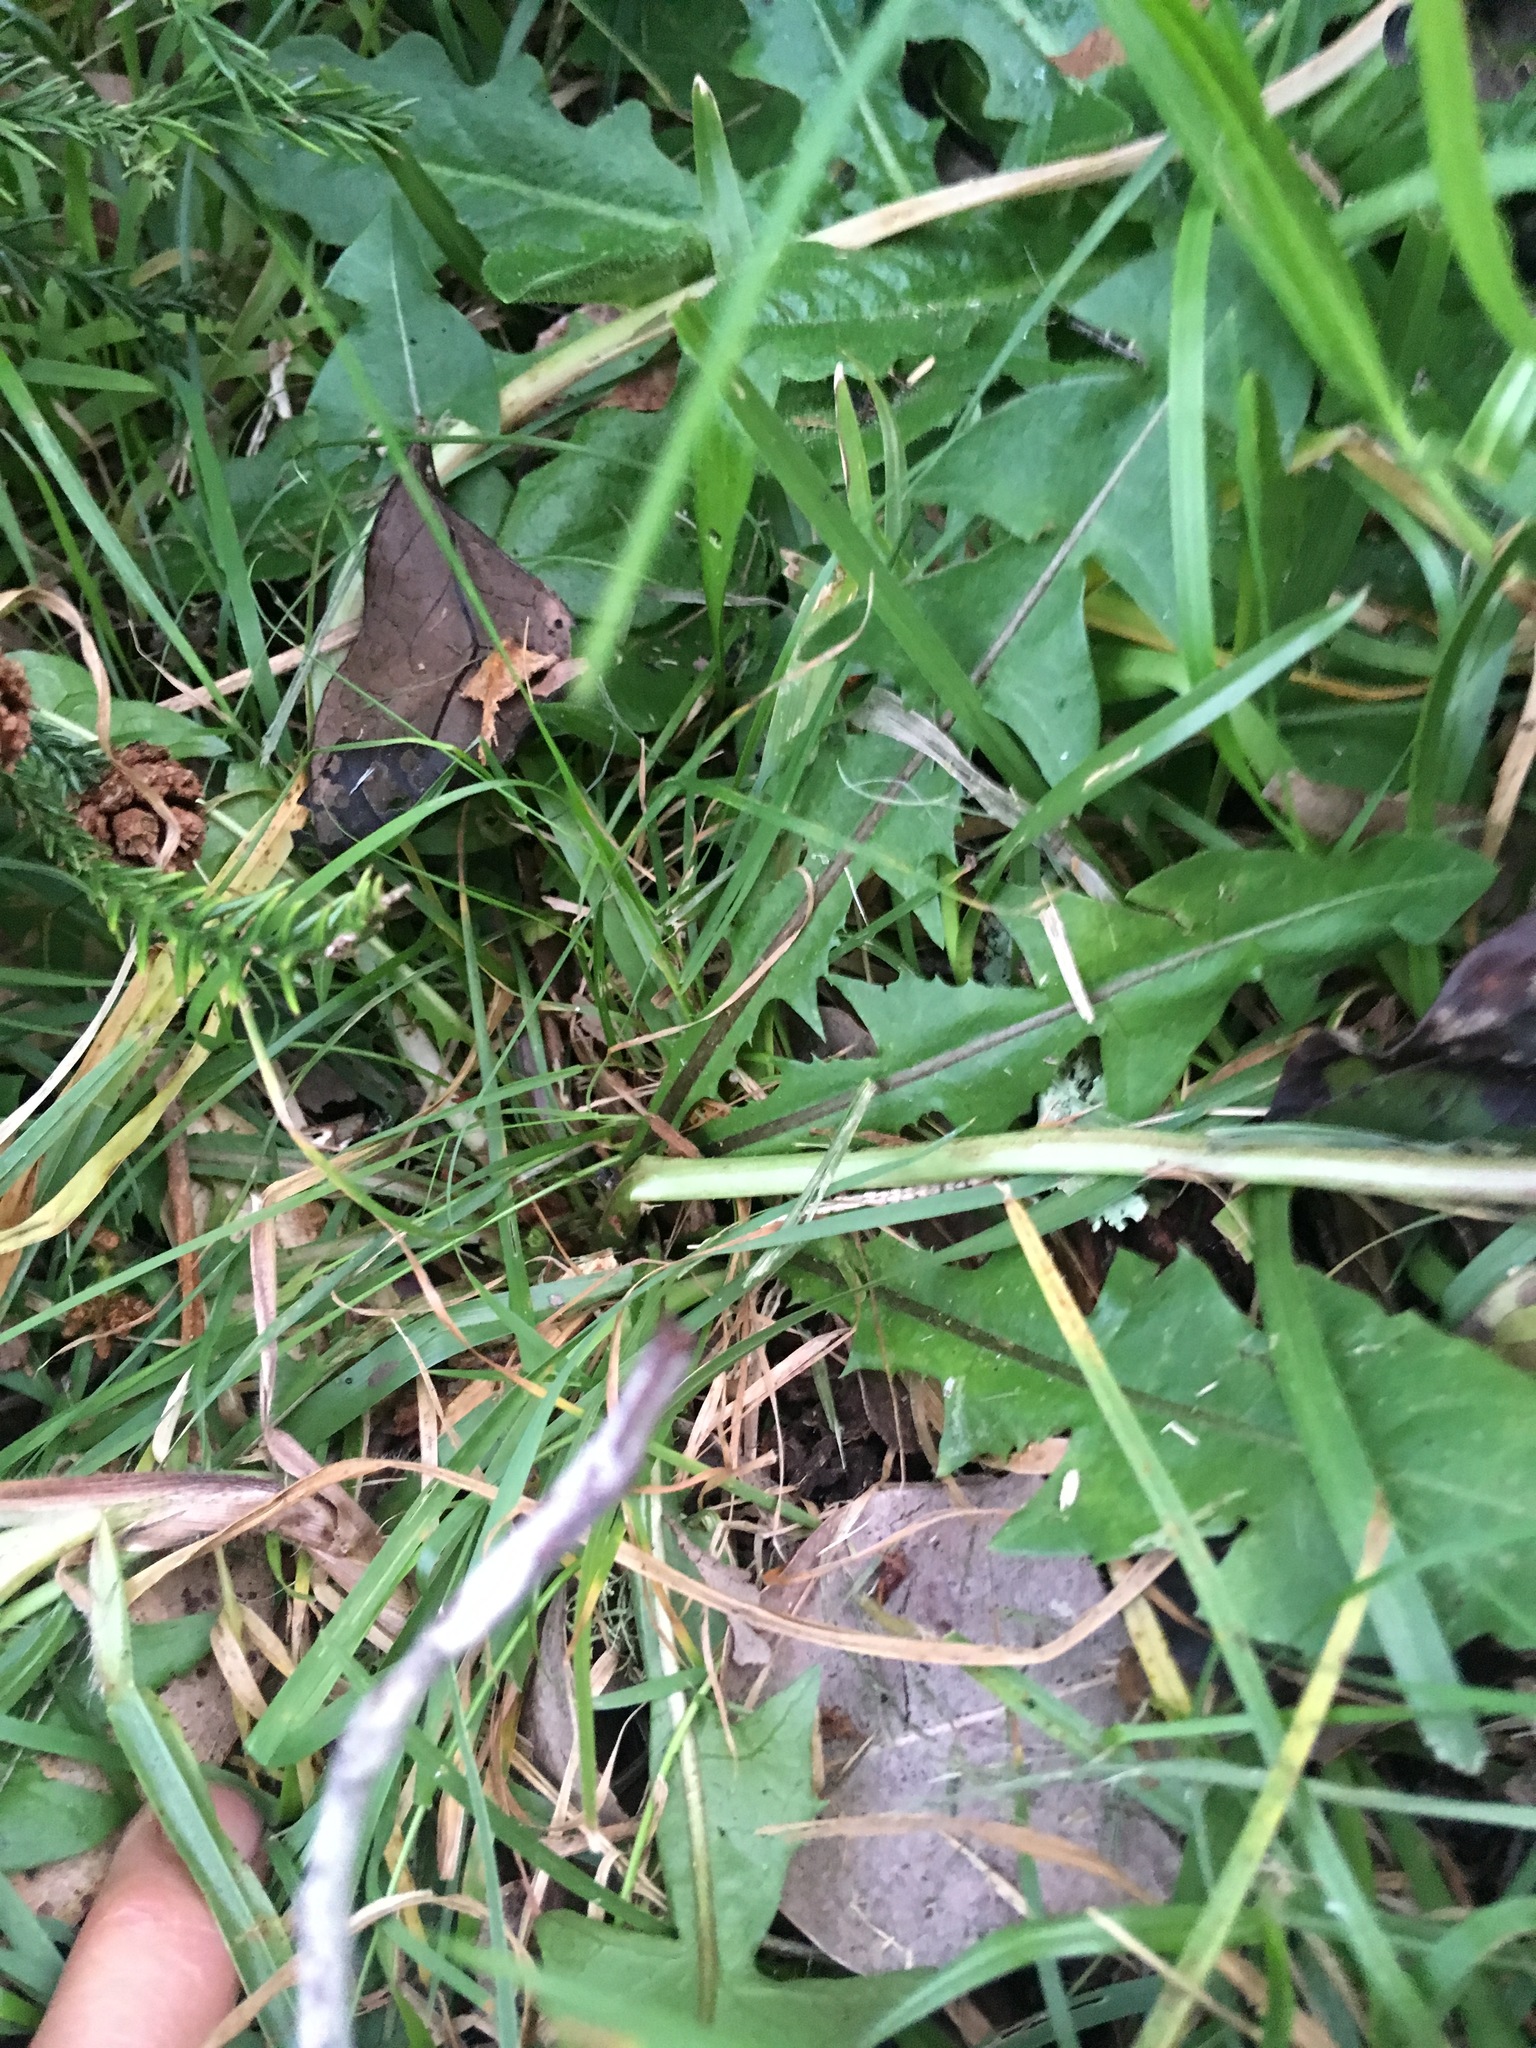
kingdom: Plantae
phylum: Tracheophyta
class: Magnoliopsida
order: Asterales
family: Asteraceae
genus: Taraxacum
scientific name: Taraxacum officinale
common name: Common dandelion
